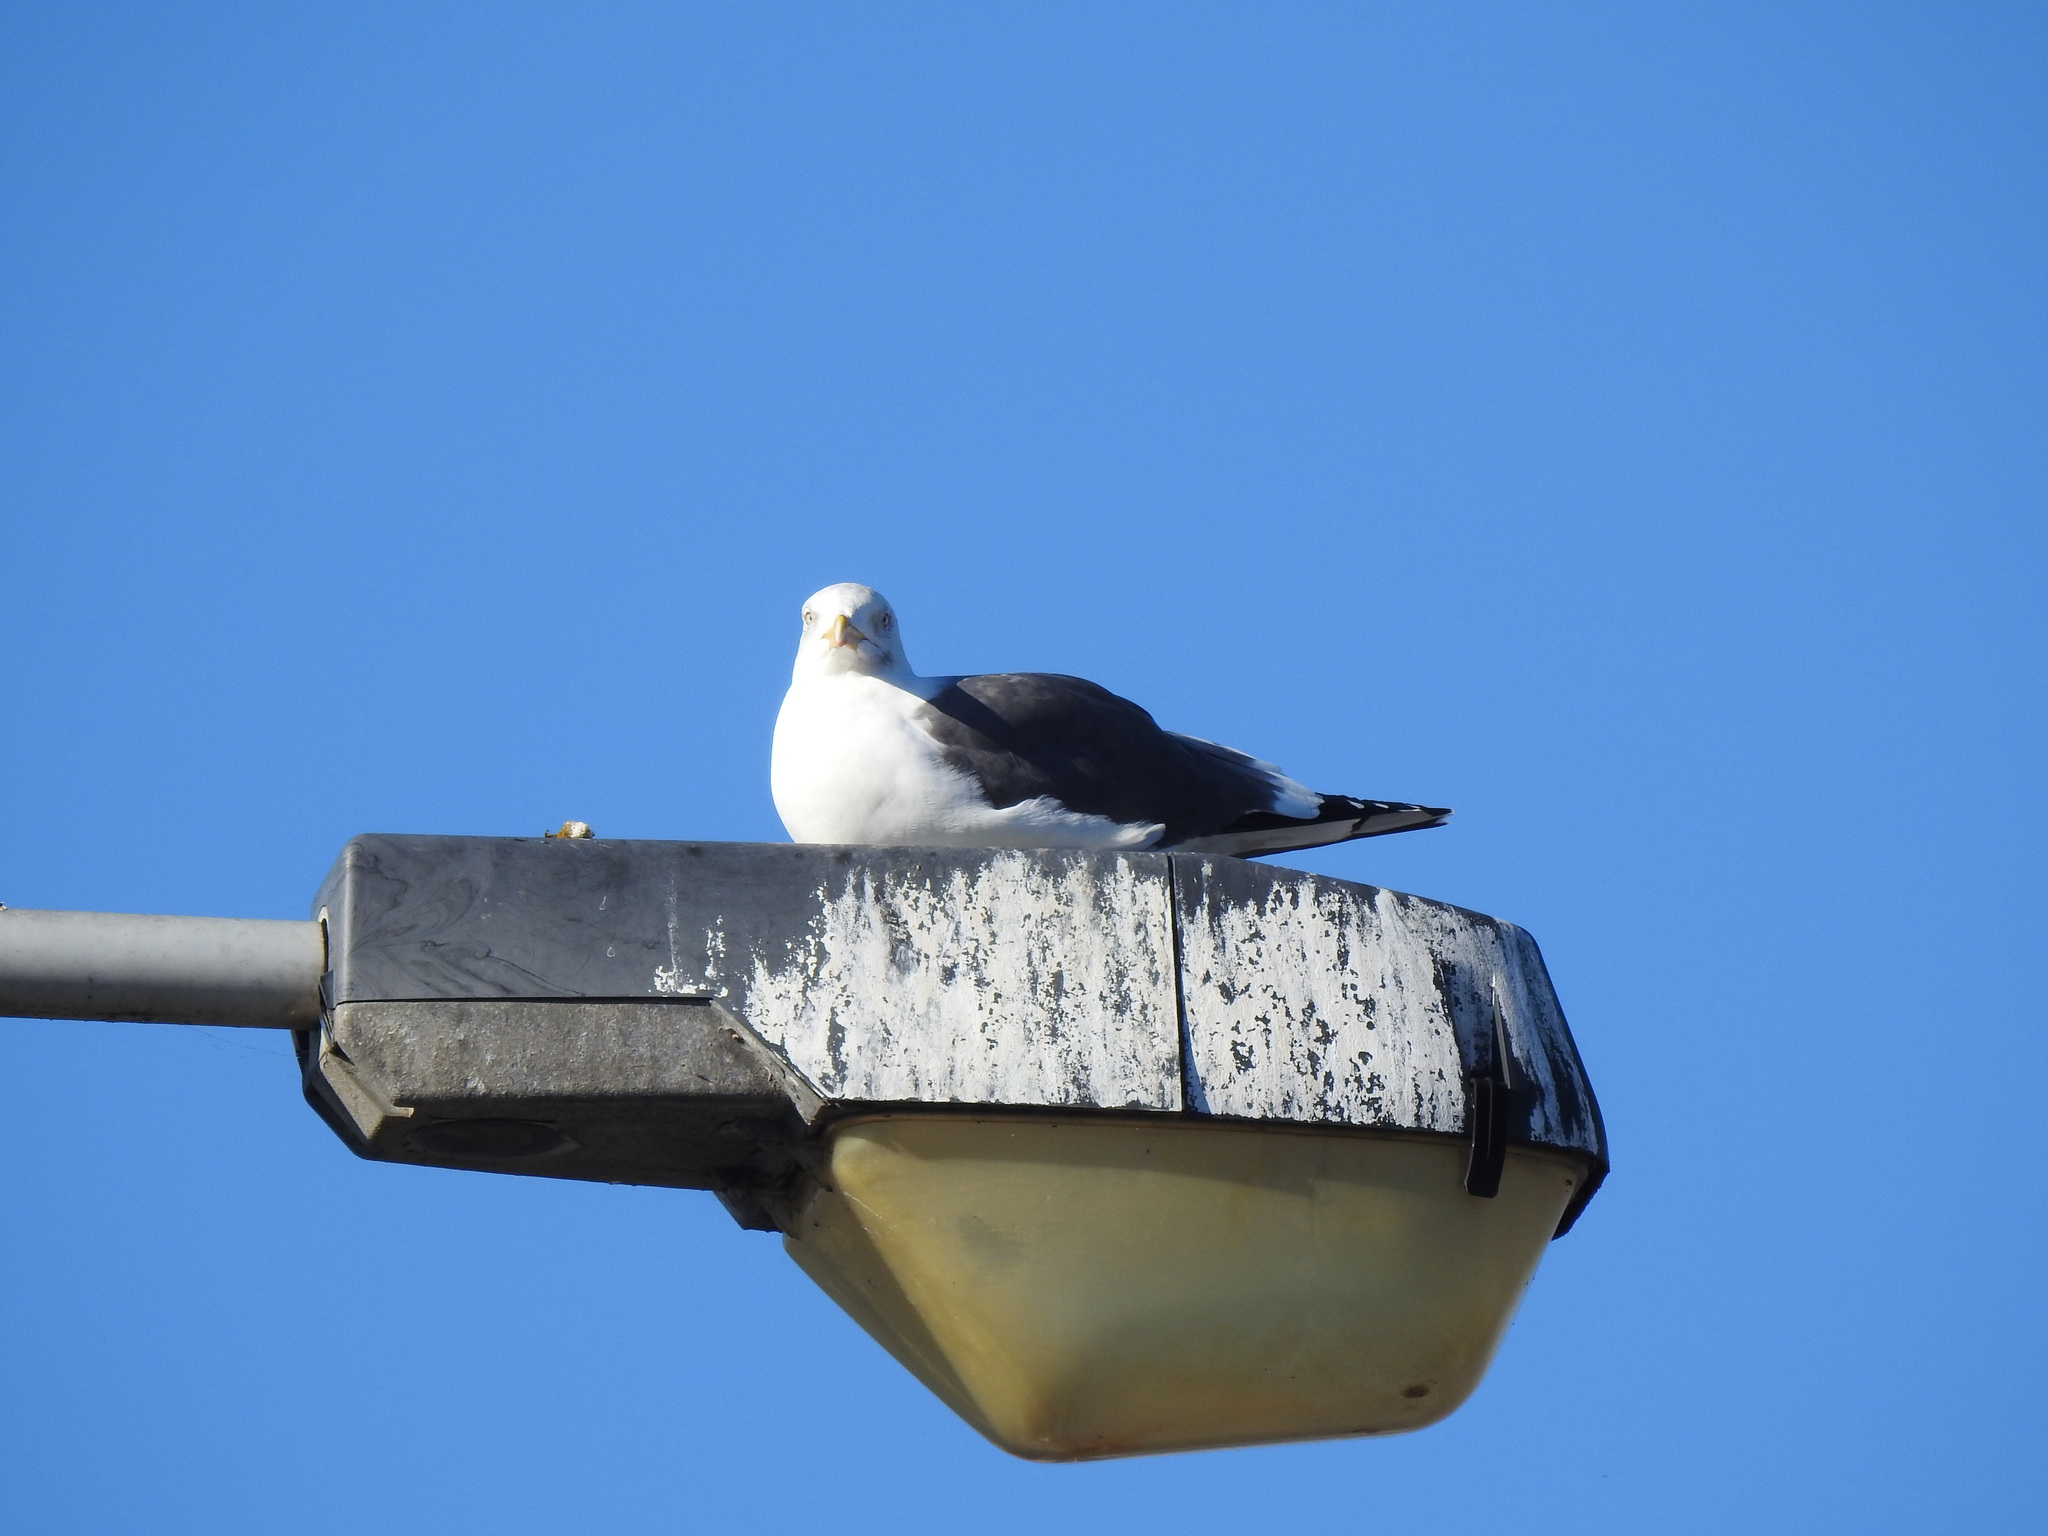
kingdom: Animalia
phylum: Chordata
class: Aves
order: Charadriiformes
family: Laridae
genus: Larus
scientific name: Larus fuscus
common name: Lesser black-backed gull
